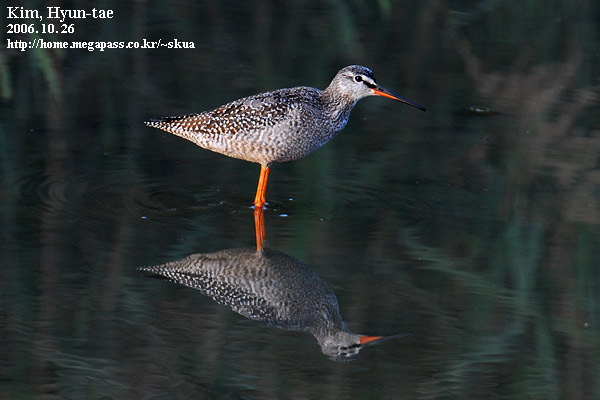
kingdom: Animalia
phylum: Chordata
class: Aves
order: Charadriiformes
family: Scolopacidae
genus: Tringa
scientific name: Tringa erythropus
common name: Spotted redshank
